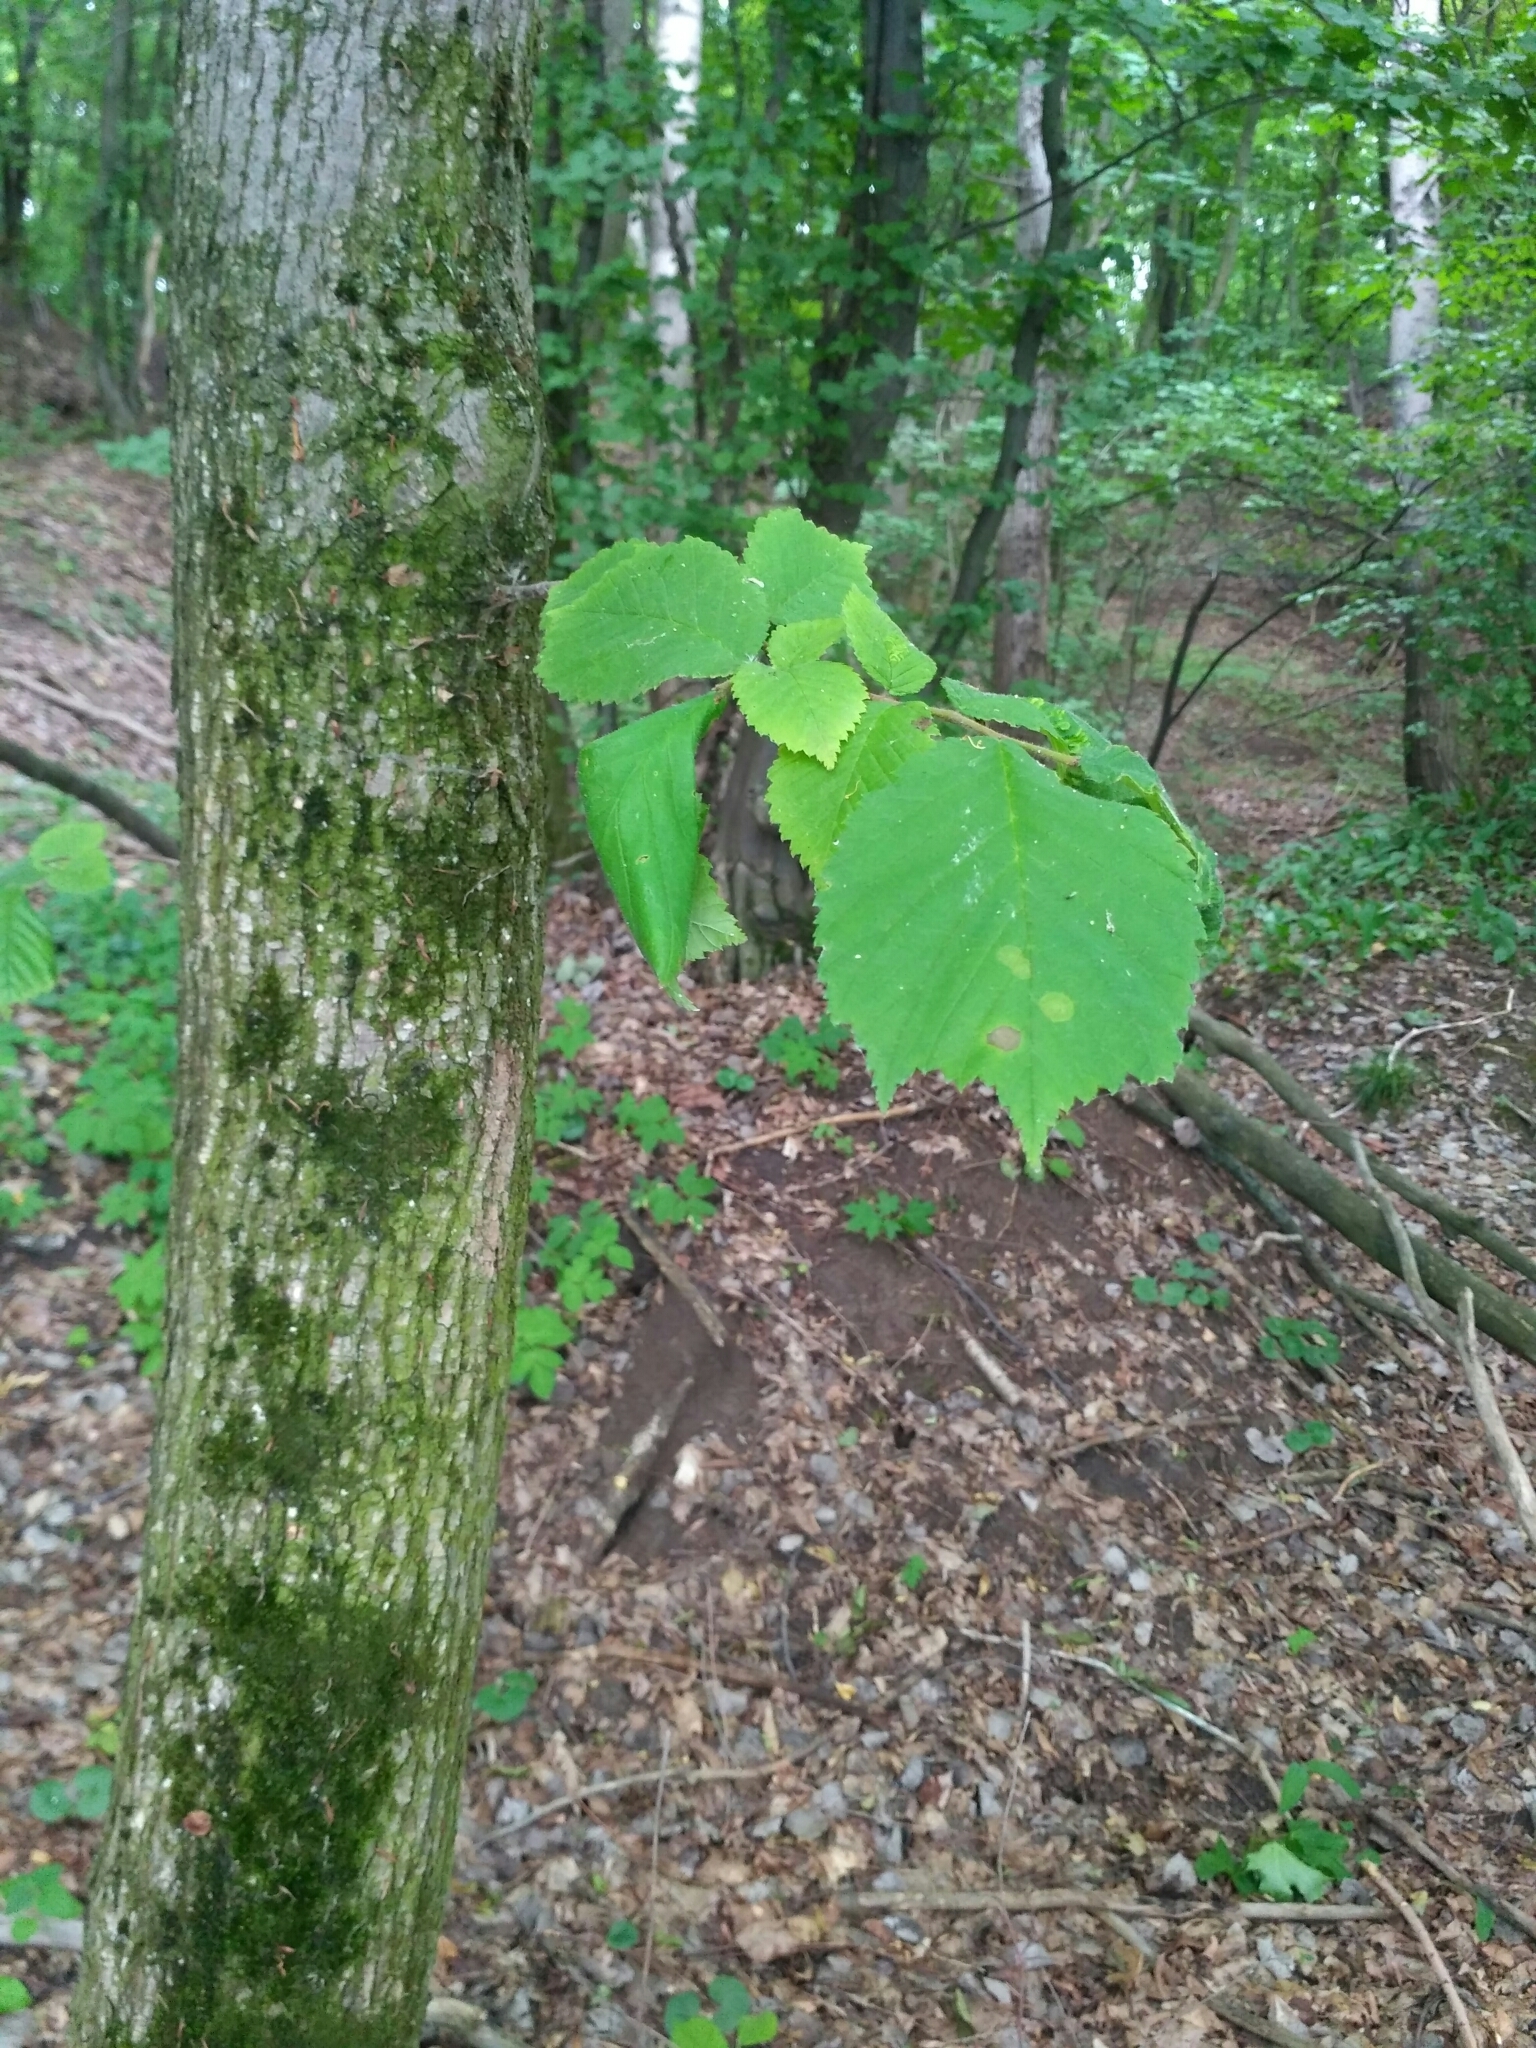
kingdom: Plantae
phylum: Tracheophyta
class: Magnoliopsida
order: Rosales
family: Ulmaceae
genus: Ulmus
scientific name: Ulmus glabra
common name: Wych elm
